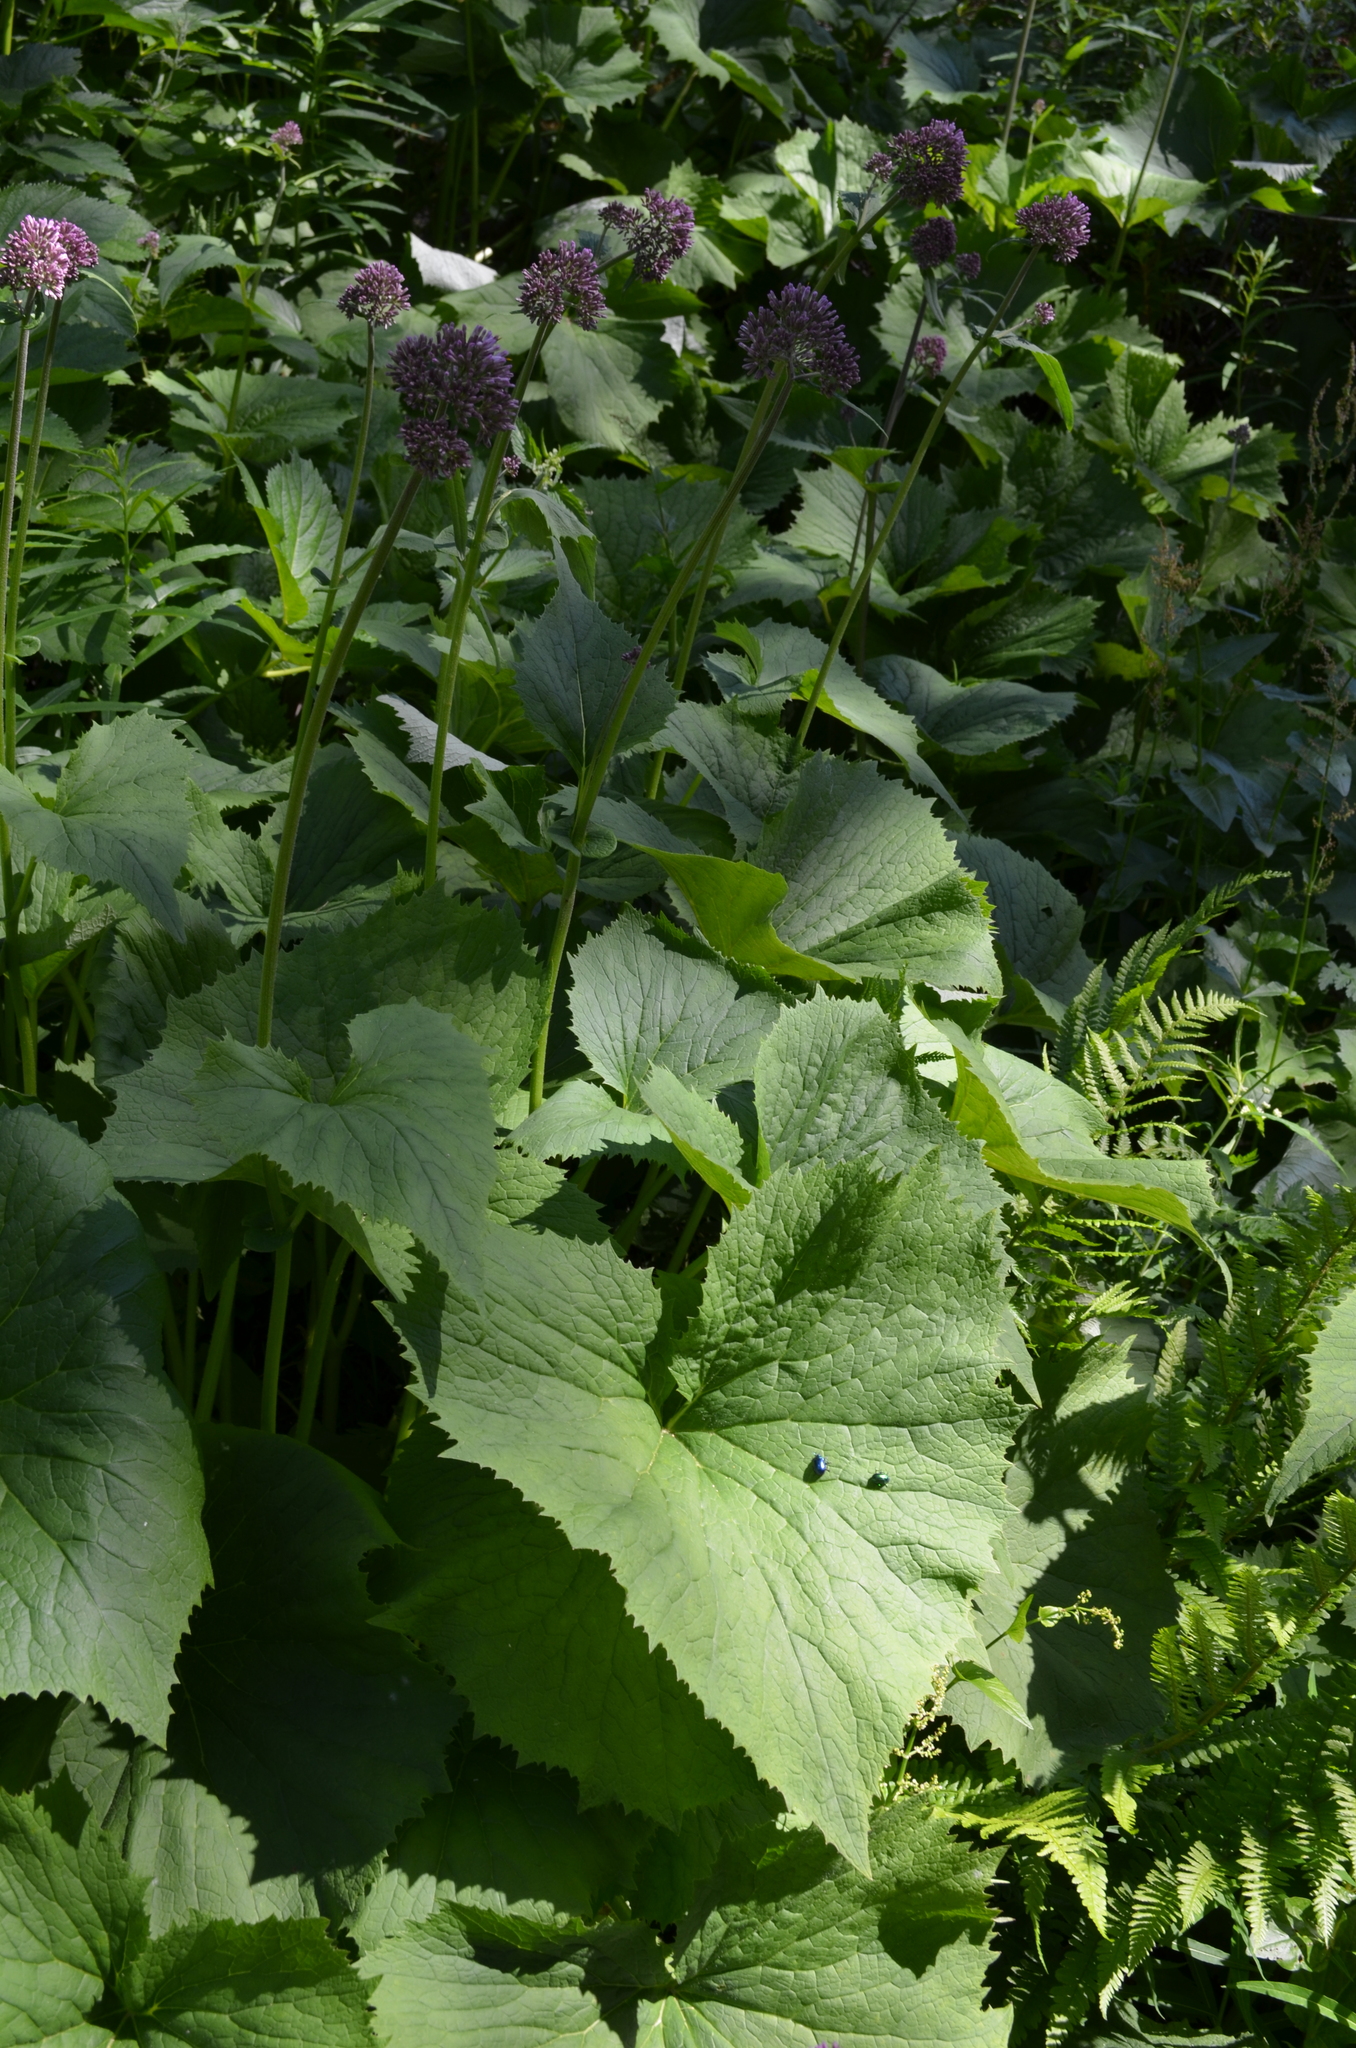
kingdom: Plantae
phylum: Tracheophyta
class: Magnoliopsida
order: Asterales
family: Asteraceae
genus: Adenostyles
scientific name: Adenostyles alliariae
